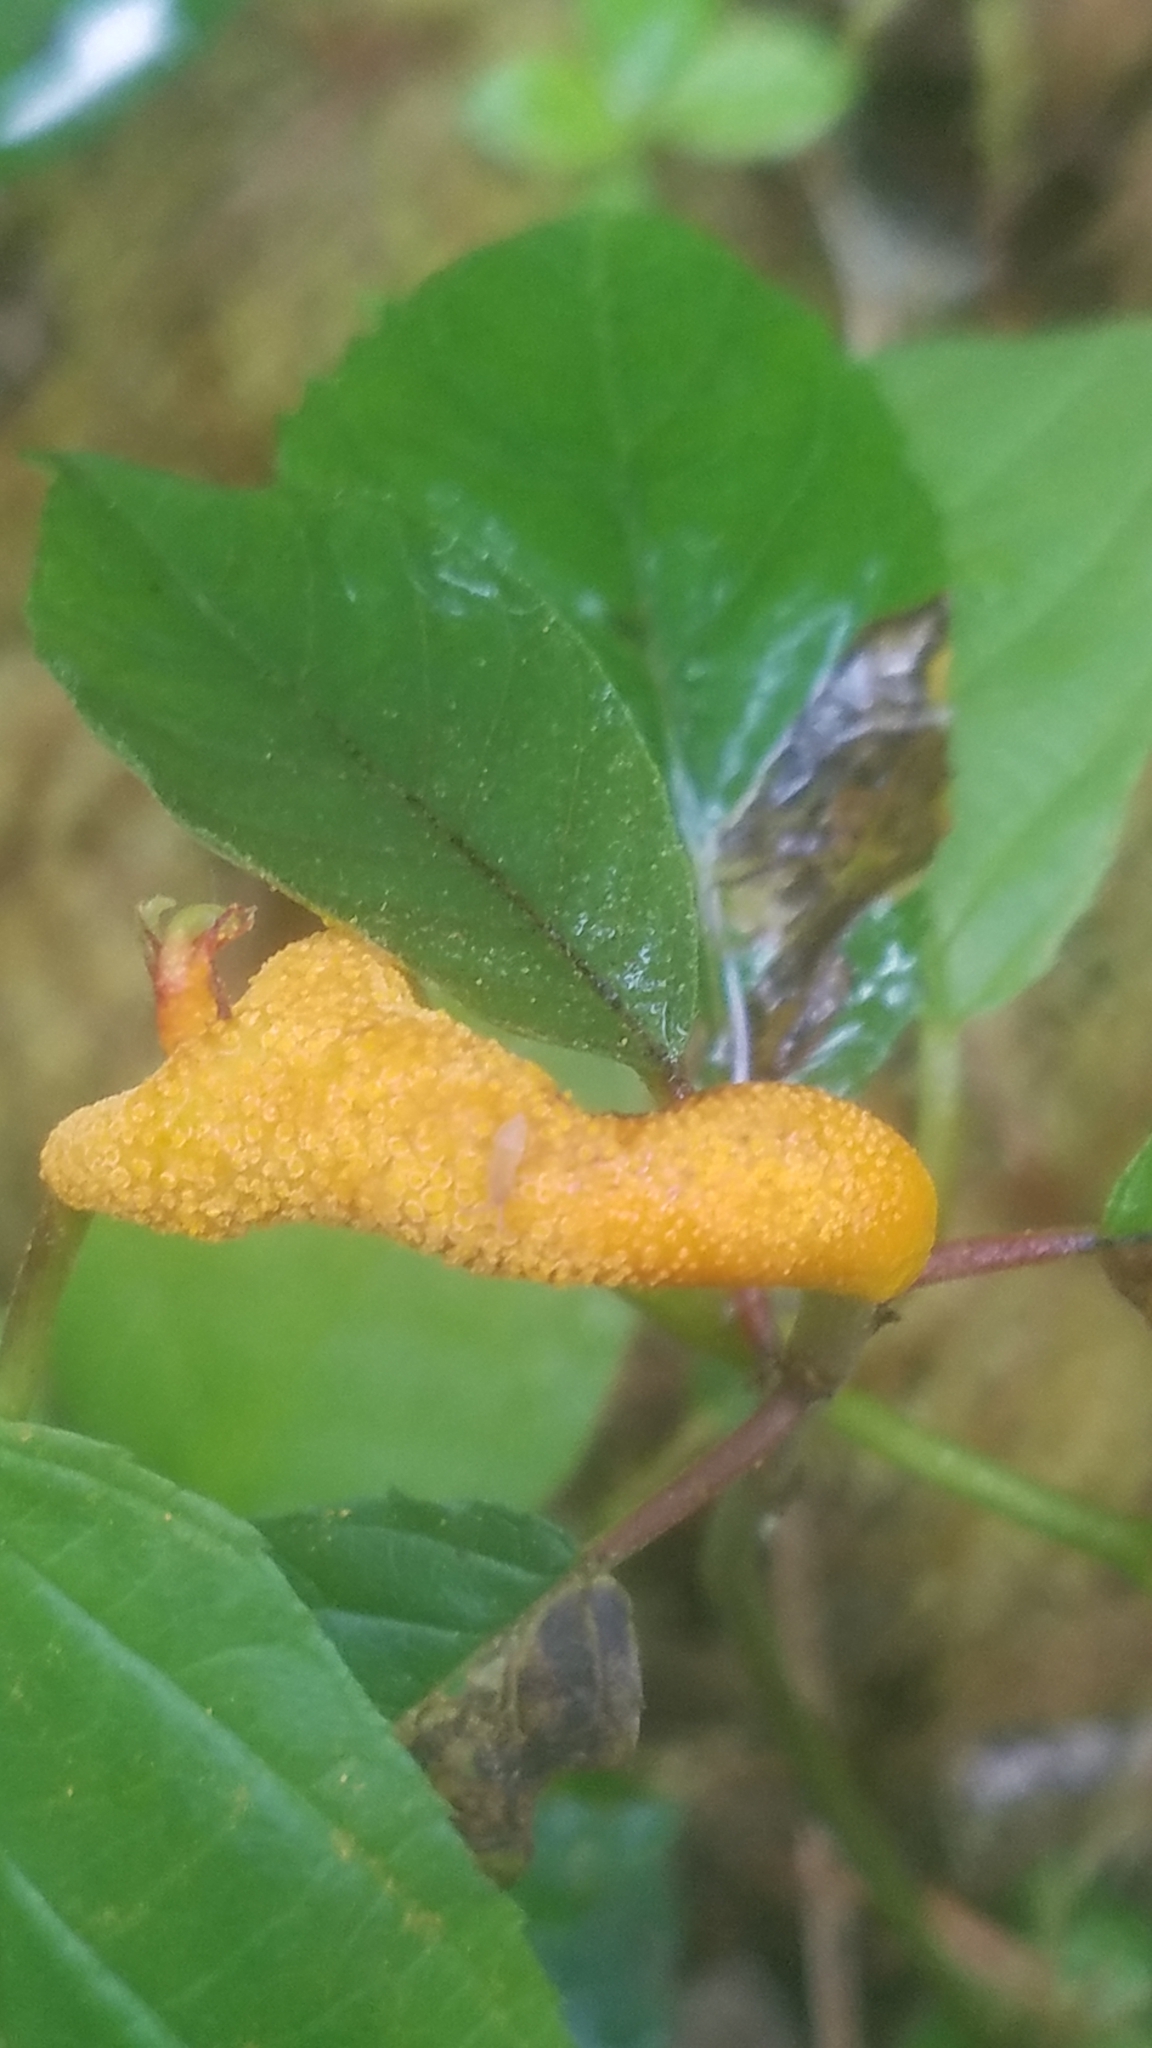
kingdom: Fungi
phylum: Basidiomycota
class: Pucciniomycetes
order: Pucciniales
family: Pucciniaceae
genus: Puccinia
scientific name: Puccinia coronata
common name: Crown rust
